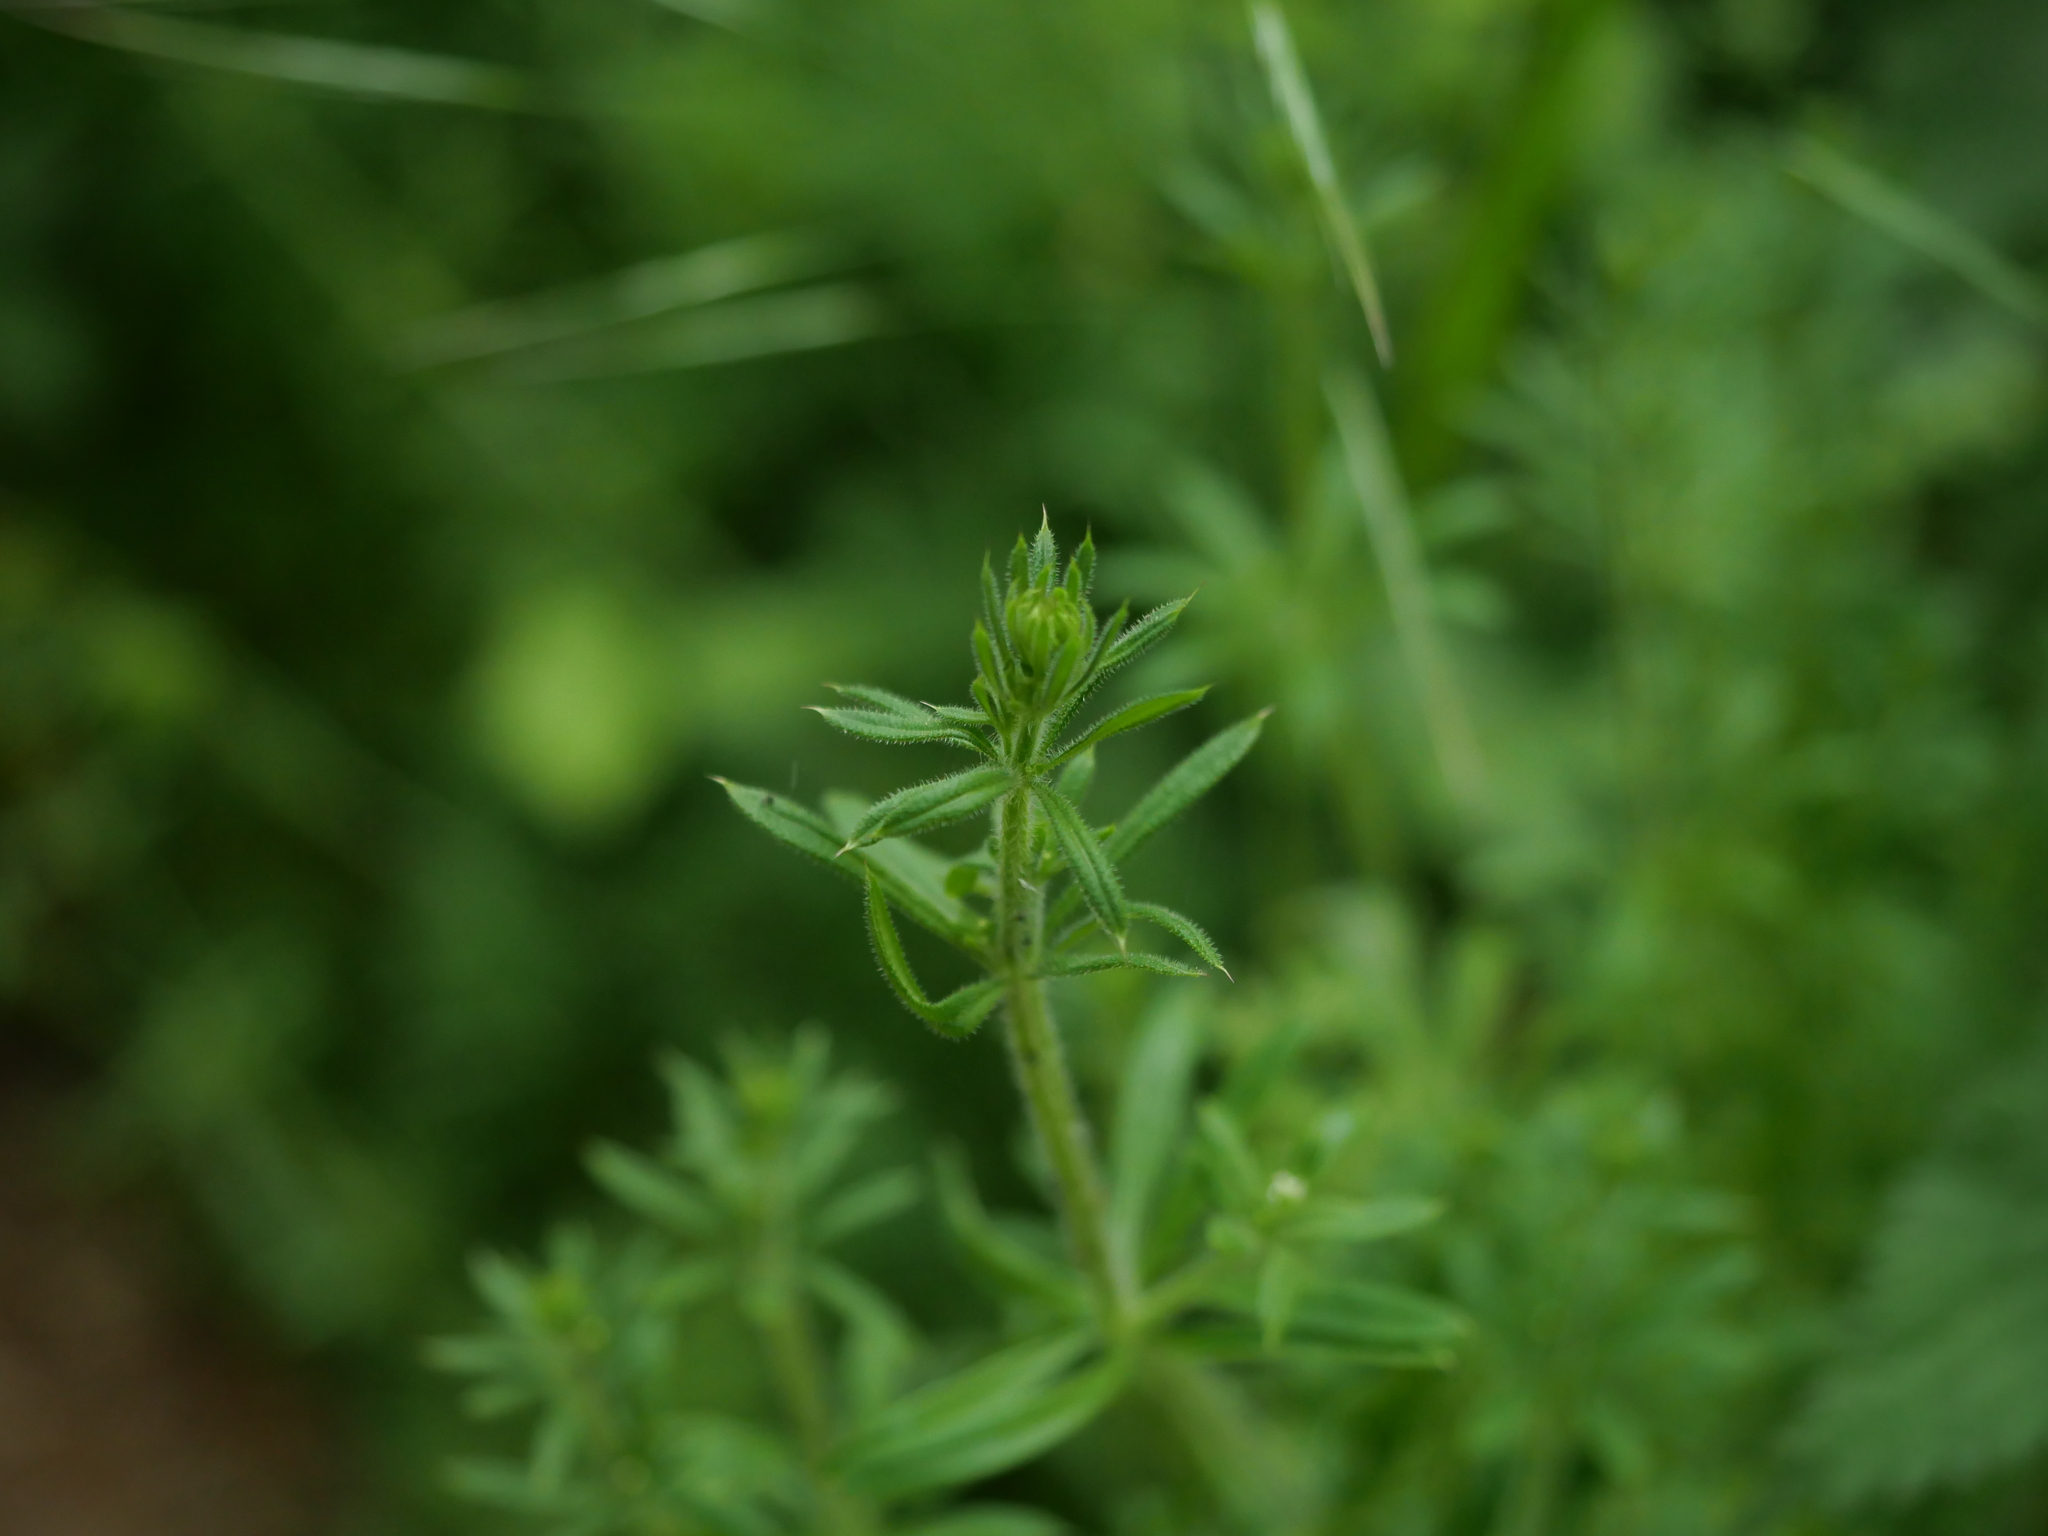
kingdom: Plantae
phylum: Tracheophyta
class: Magnoliopsida
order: Gentianales
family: Rubiaceae
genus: Galium
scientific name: Galium aparine
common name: Cleavers
